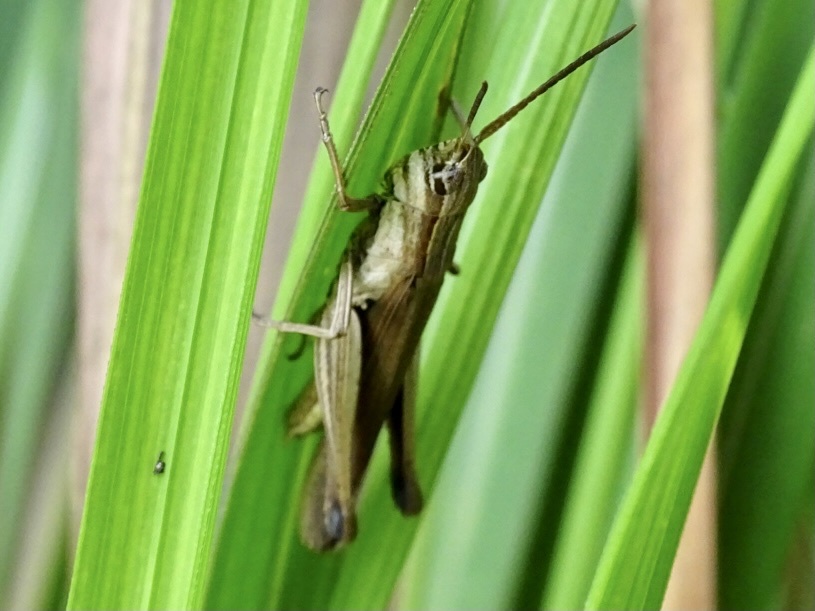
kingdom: Animalia
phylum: Arthropoda
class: Insecta
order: Orthoptera
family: Acrididae
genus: Phlaeoba
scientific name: Phlaeoba infumata
